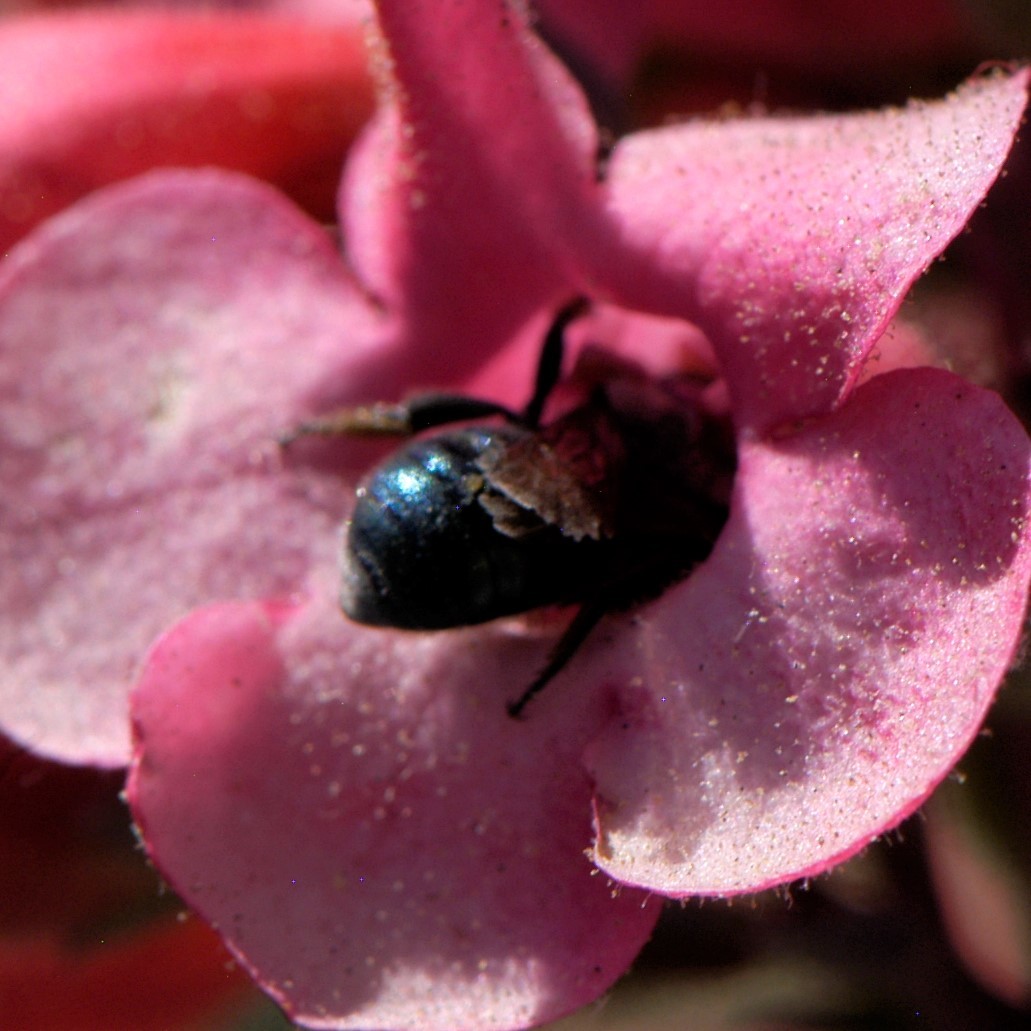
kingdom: Animalia
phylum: Arthropoda
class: Insecta
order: Hymenoptera
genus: Melanosmia
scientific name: Melanosmia
